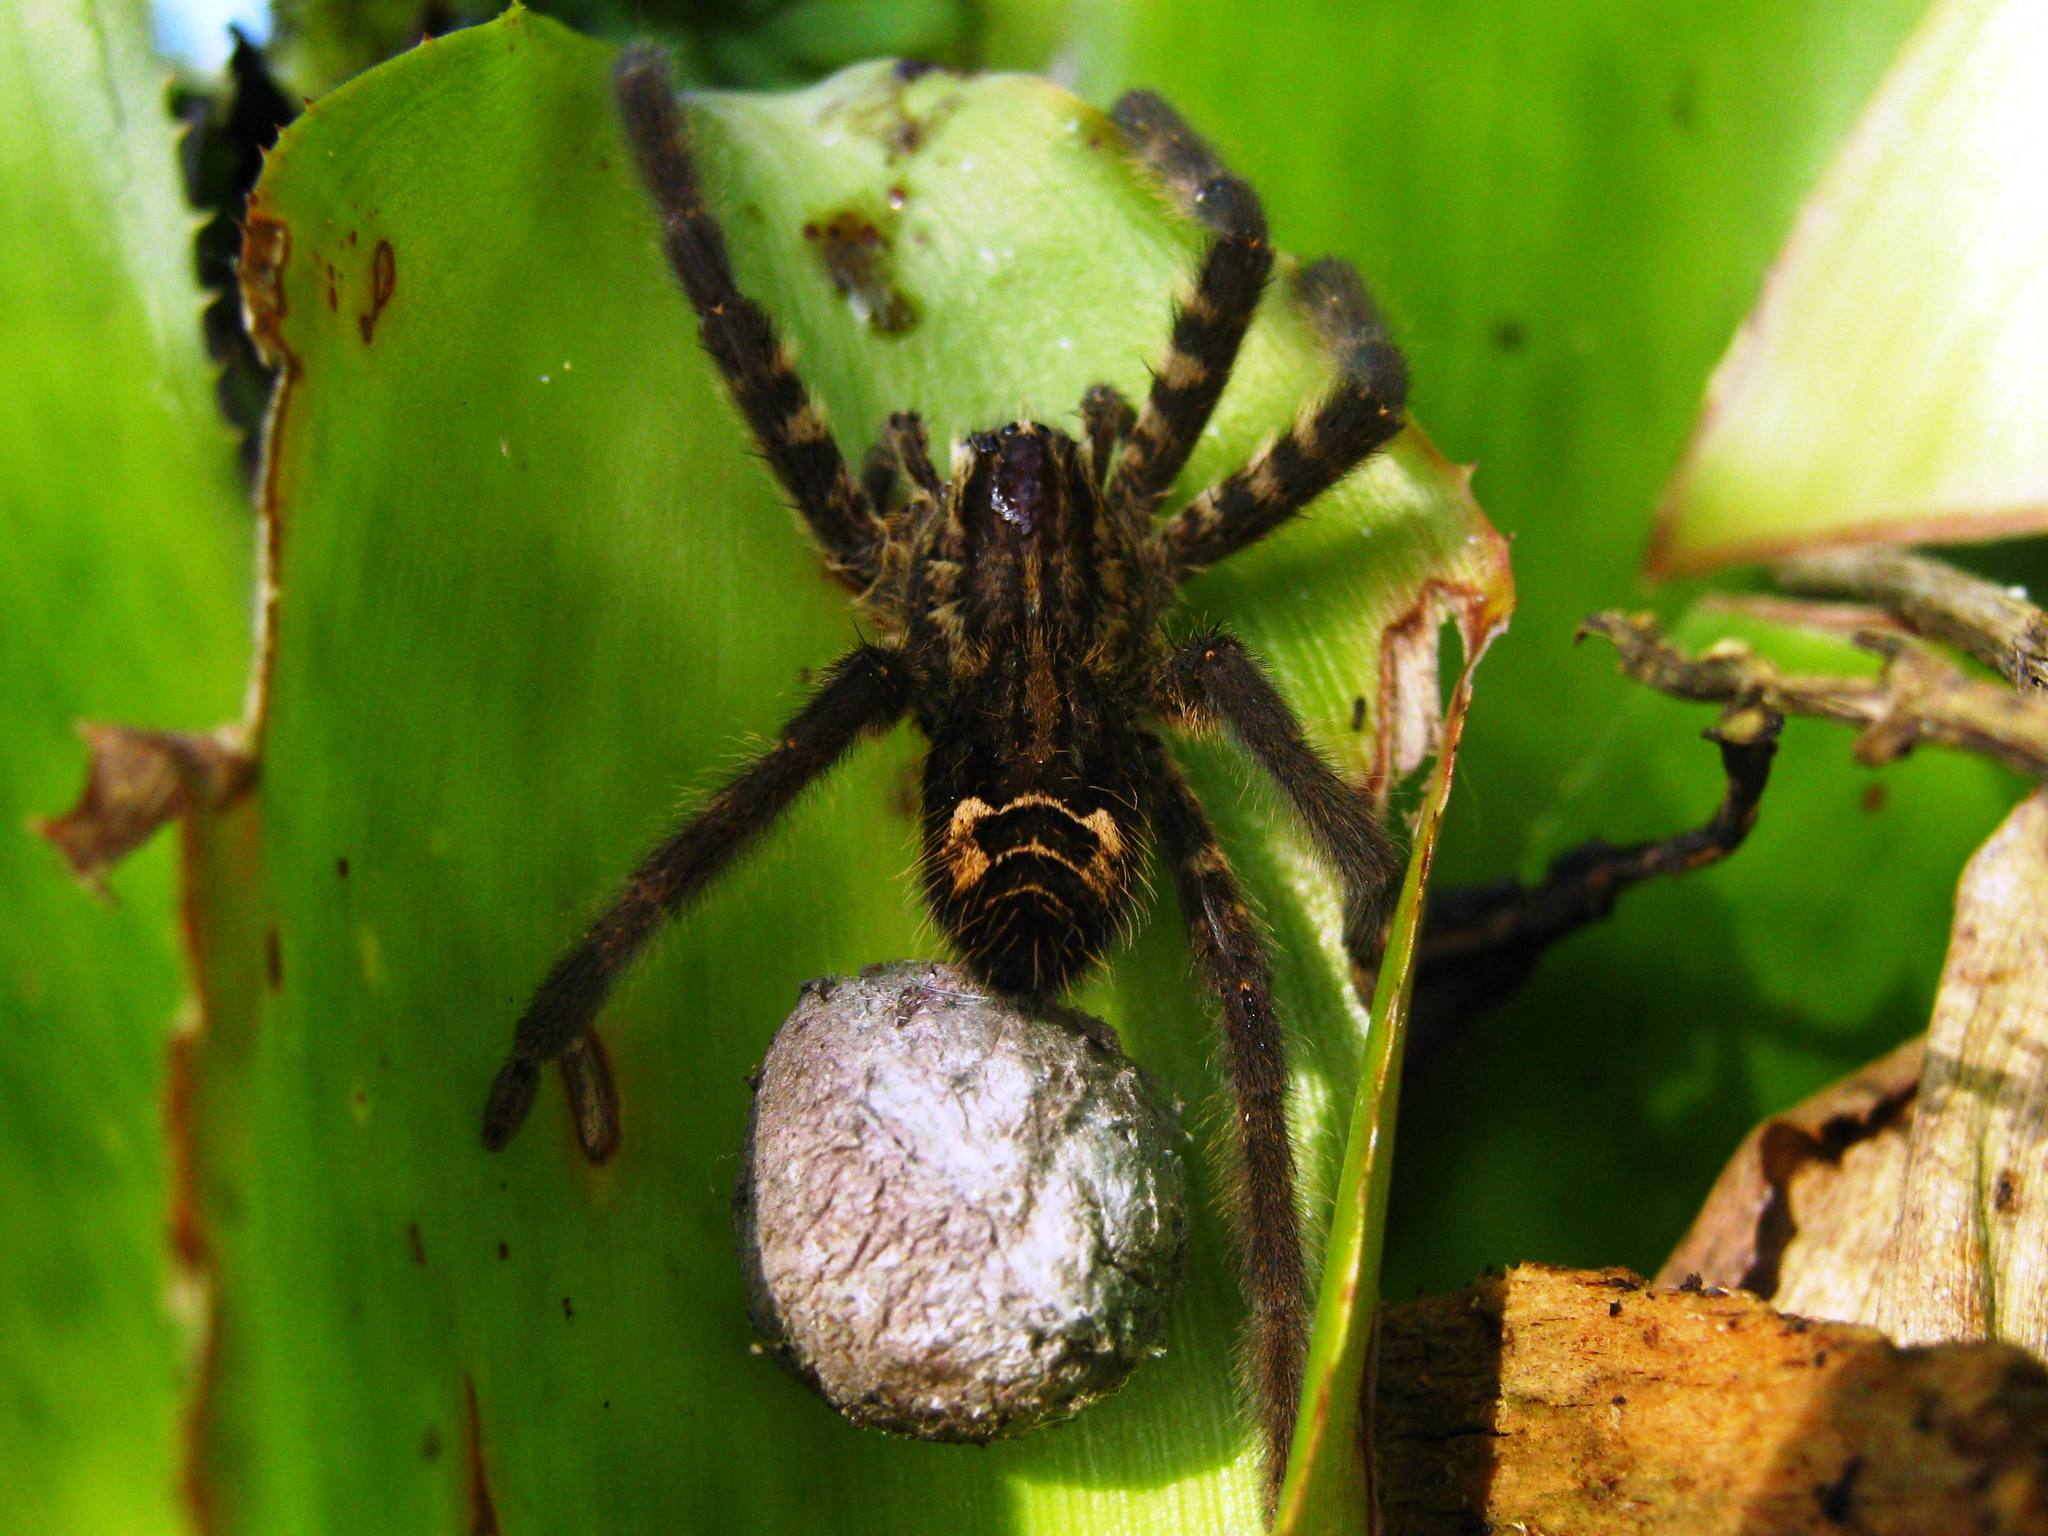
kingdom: Animalia
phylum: Arthropoda
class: Arachnida
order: Araneae
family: Trechaleidae
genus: Cupiennius
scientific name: Cupiennius salei
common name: Wandering spiders
